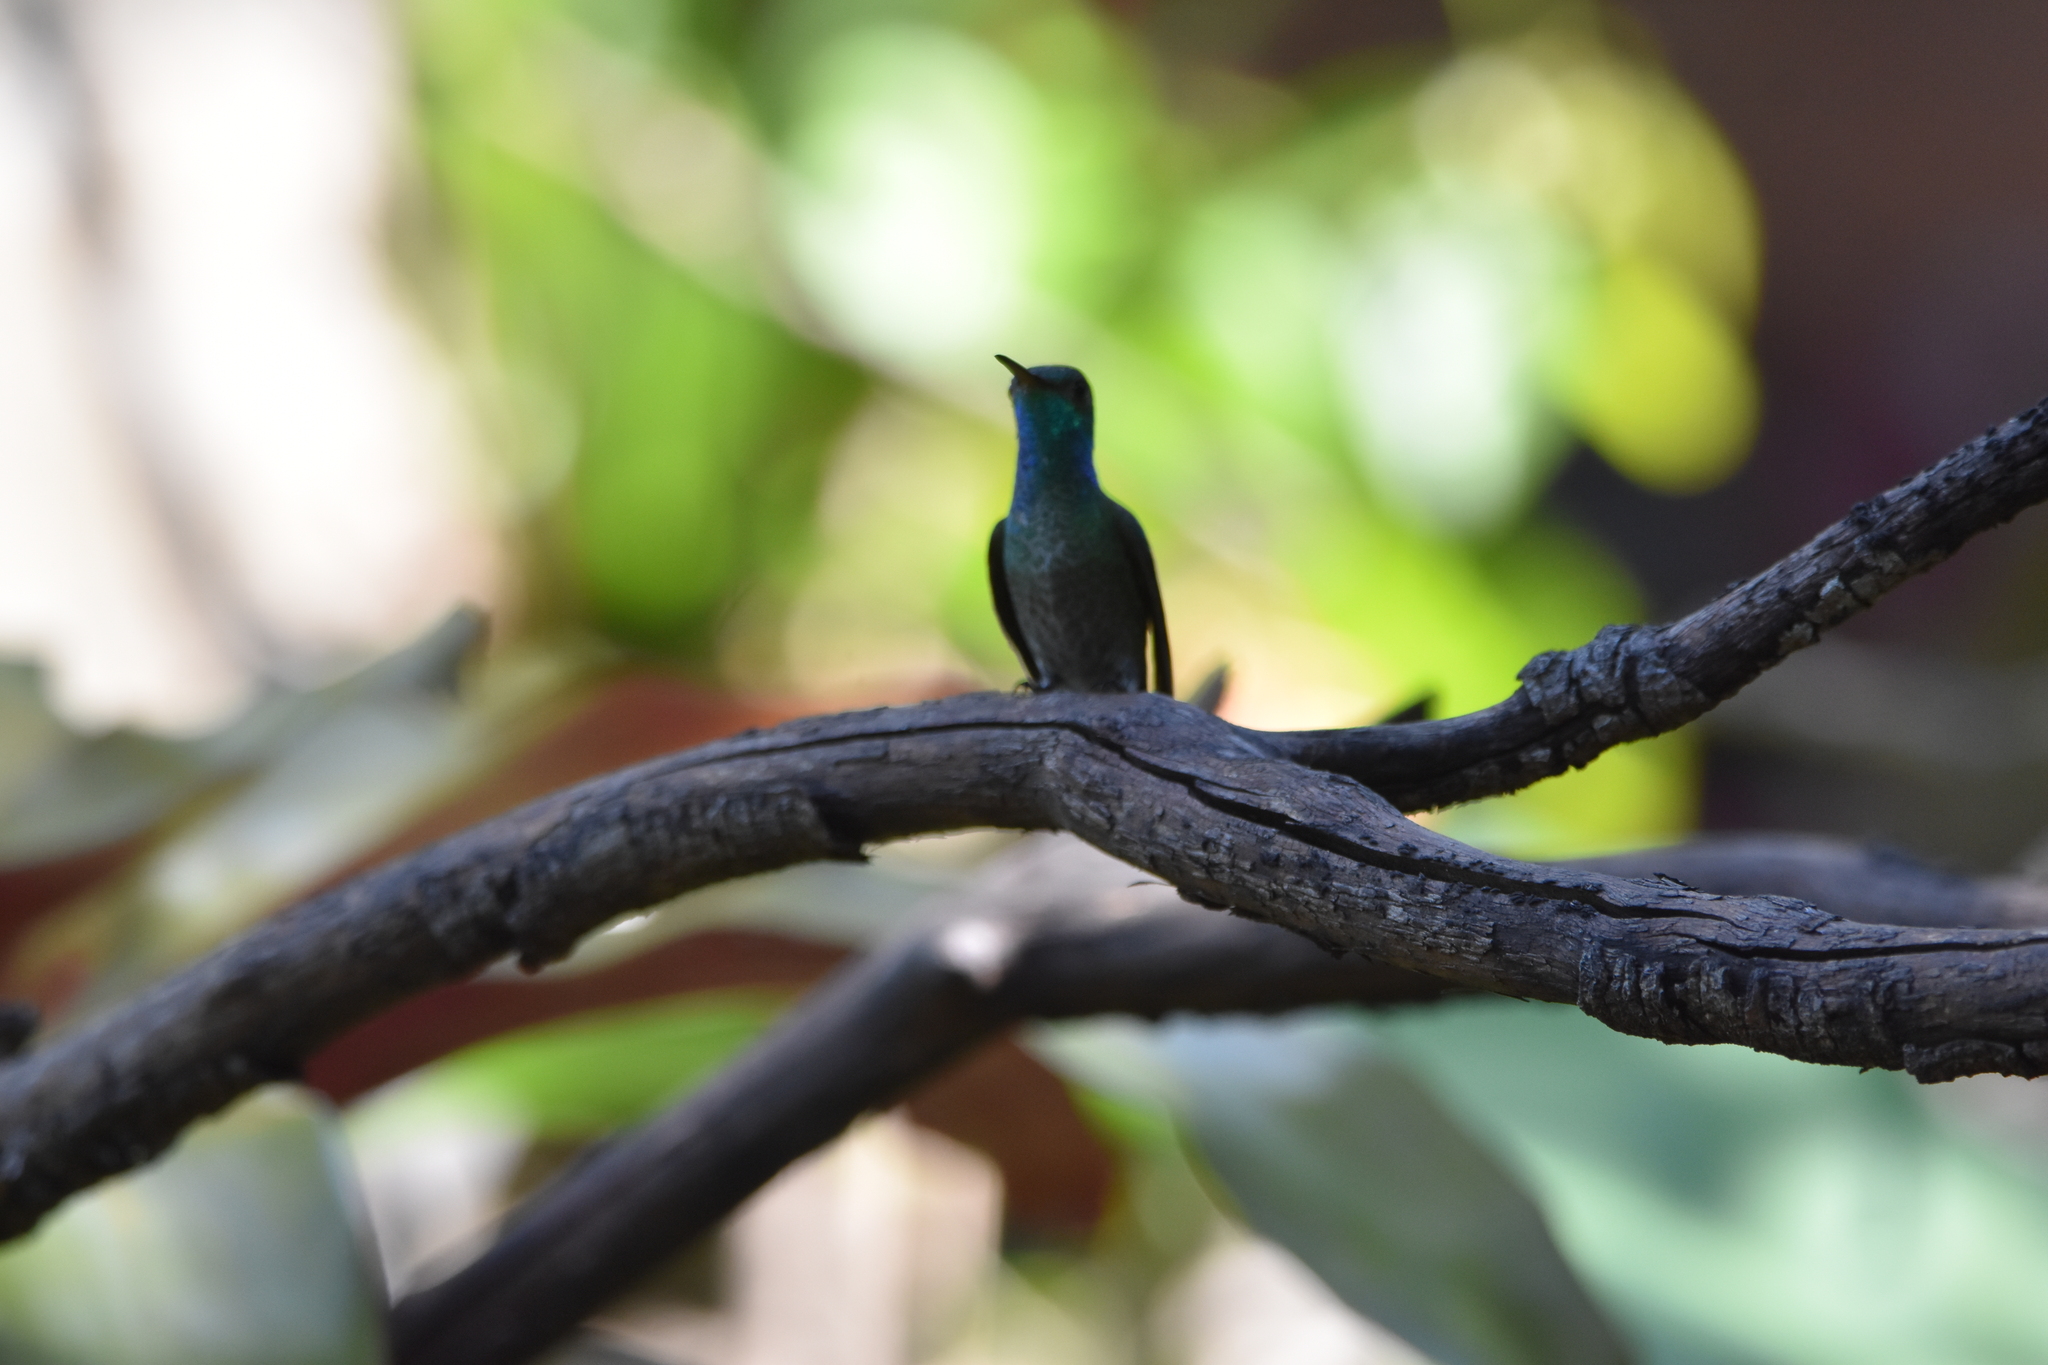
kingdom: Animalia
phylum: Chordata
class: Aves
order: Apodiformes
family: Trochilidae
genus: Chrysuronia
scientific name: Chrysuronia versicolor
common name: Versicolored emerald
